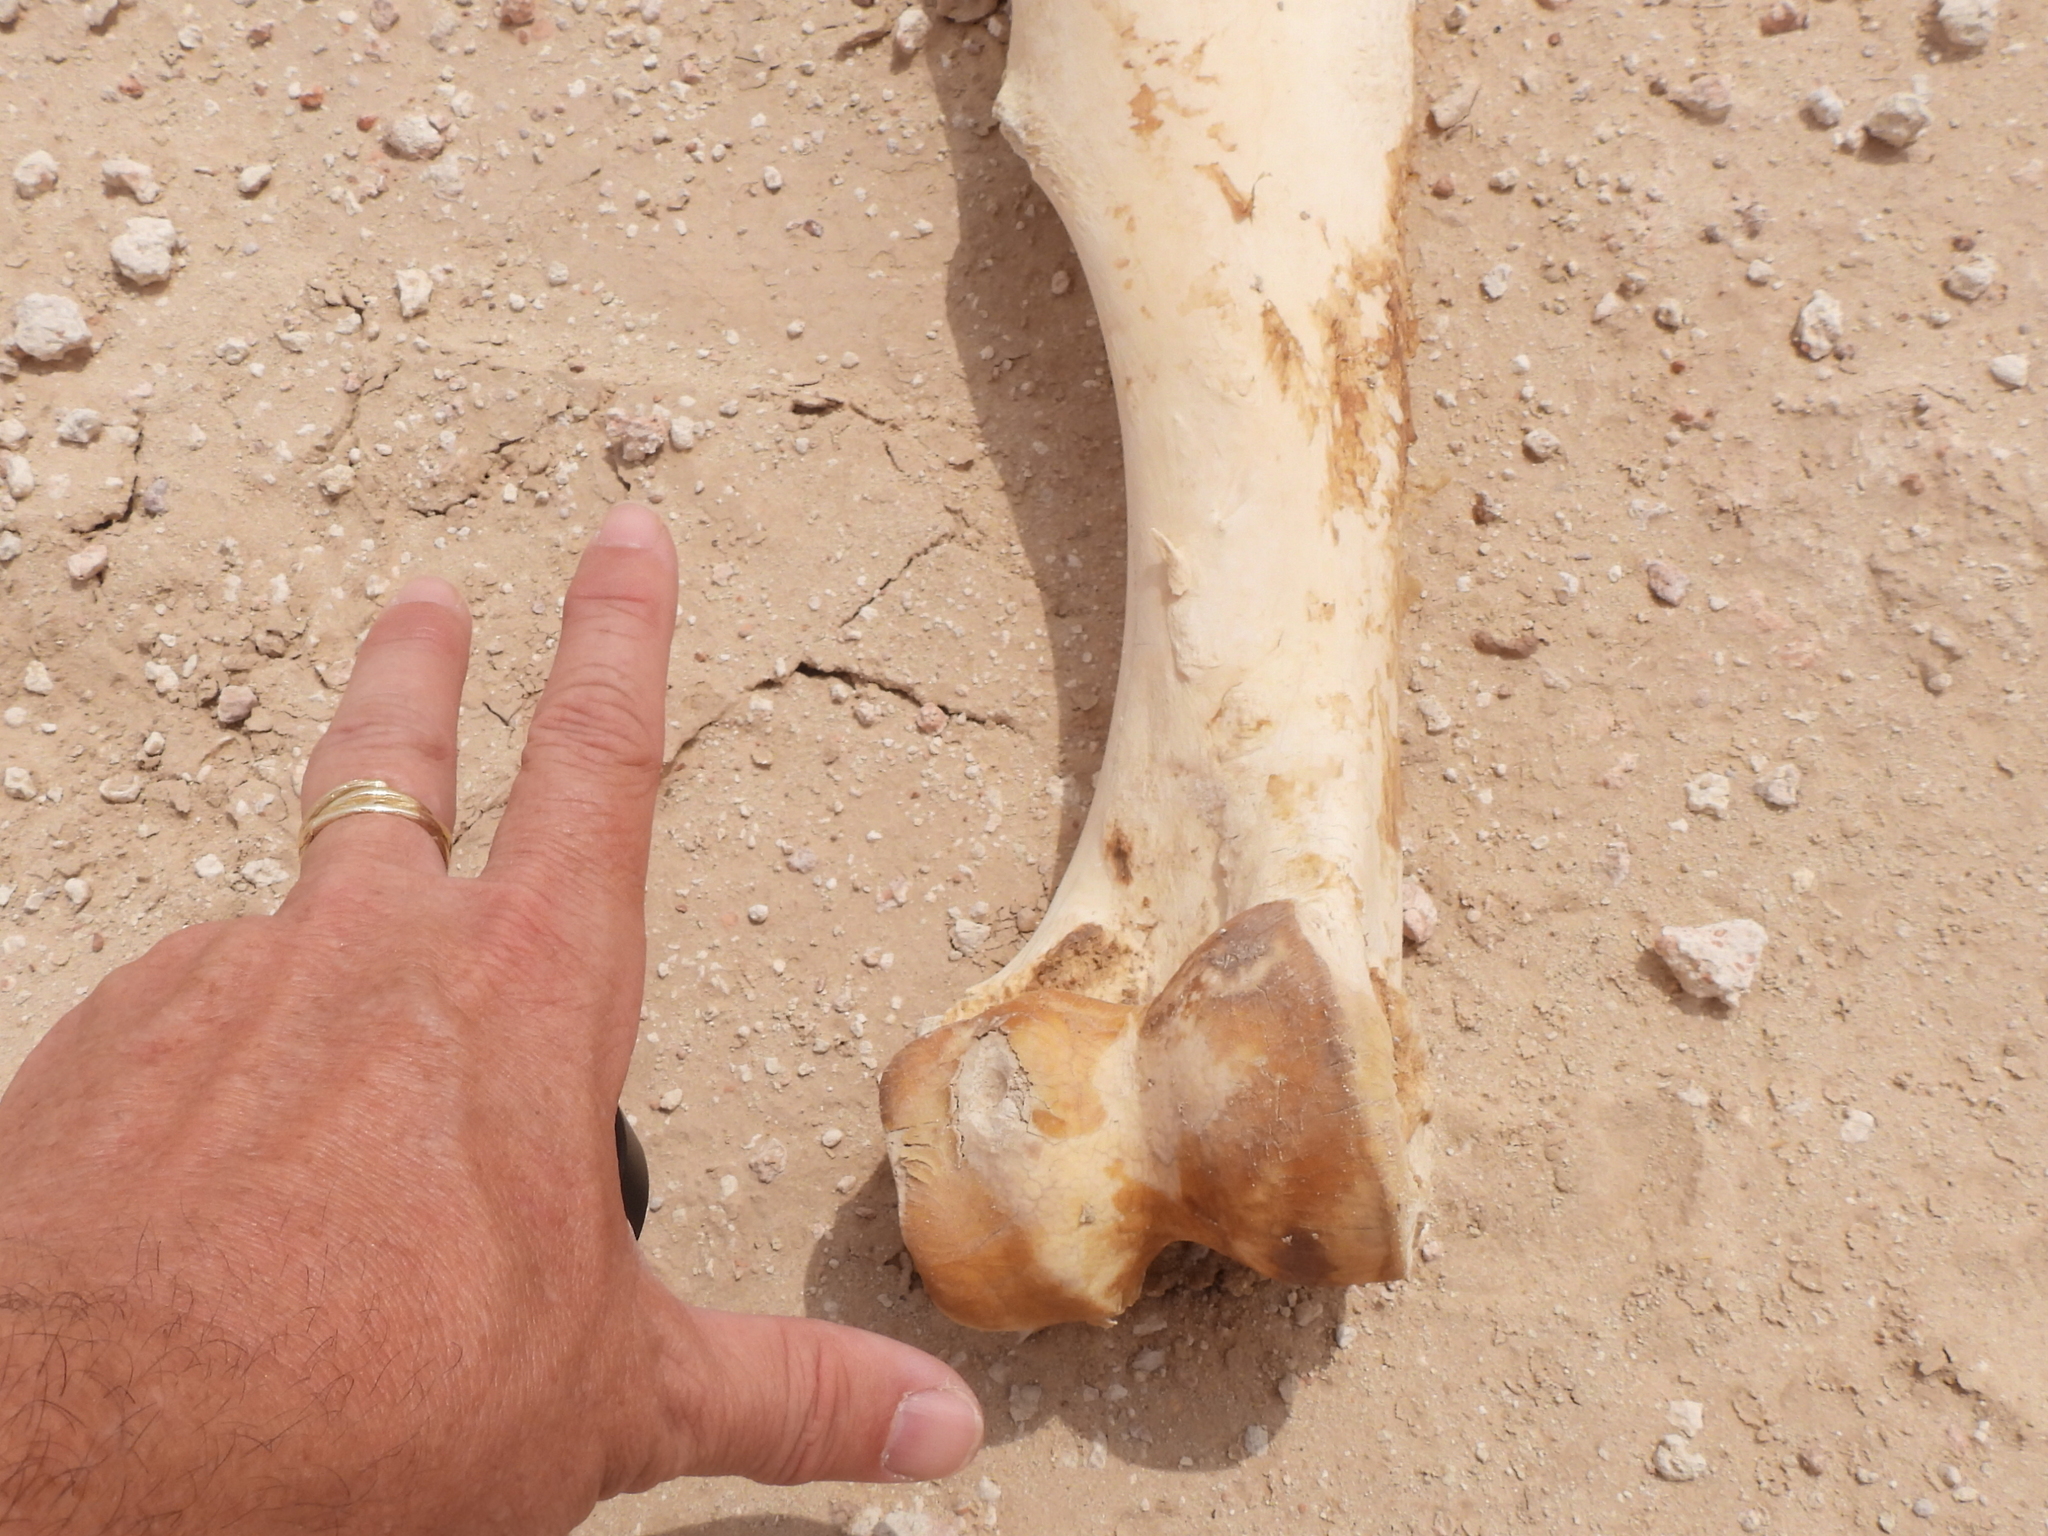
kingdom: Animalia
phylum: Chordata
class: Mammalia
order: Artiodactyla
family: Camelidae
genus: Camelus
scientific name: Camelus dromedarius
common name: One-humped camel
